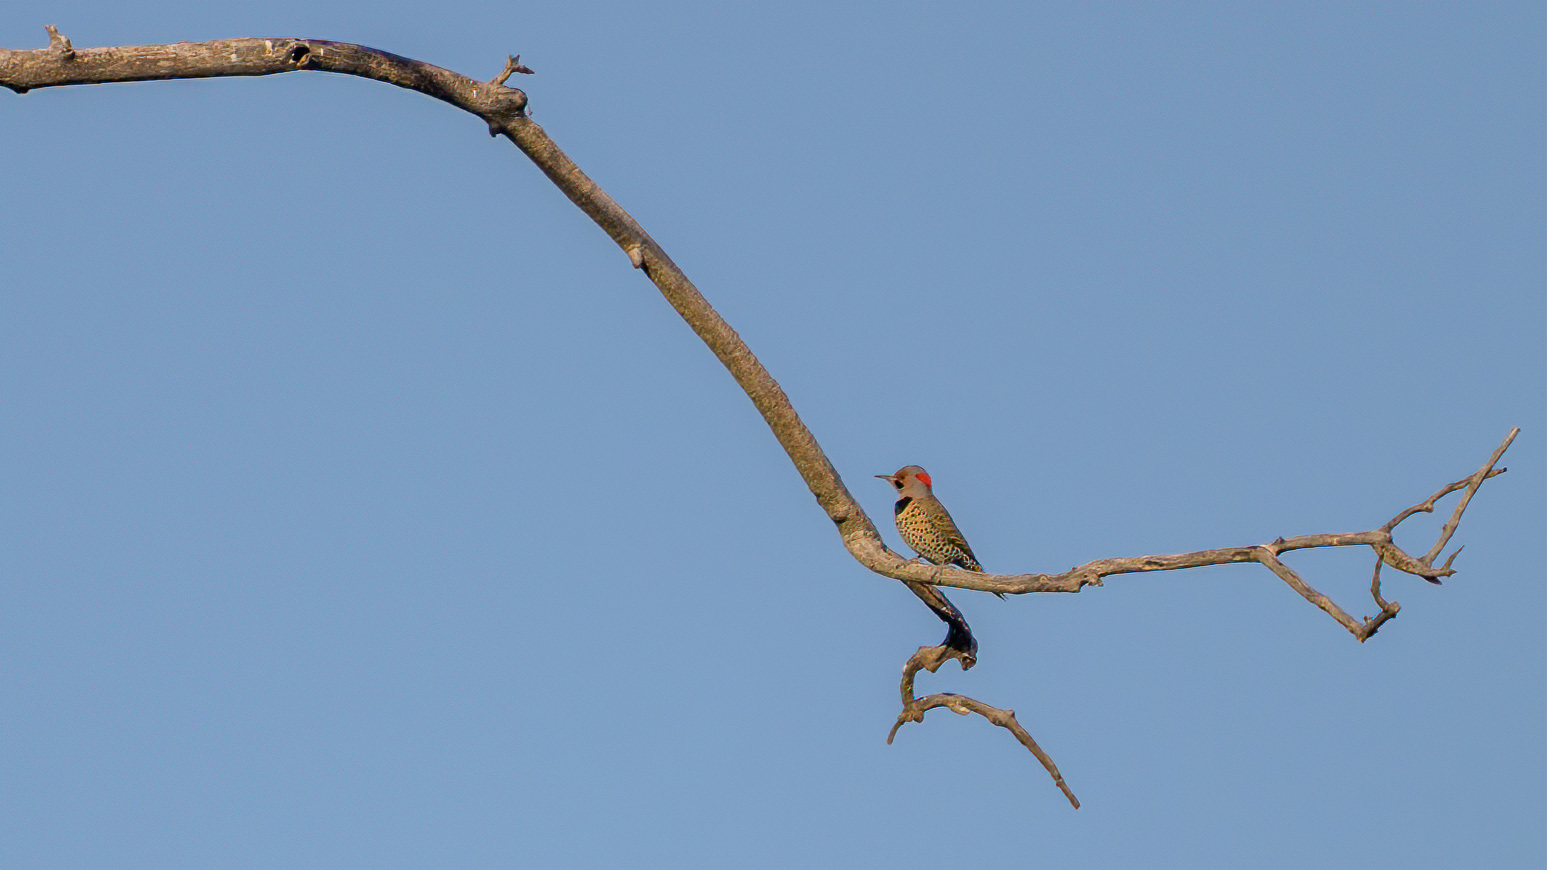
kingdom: Animalia
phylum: Chordata
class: Aves
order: Piciformes
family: Picidae
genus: Colaptes
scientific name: Colaptes auratus
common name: Northern flicker
